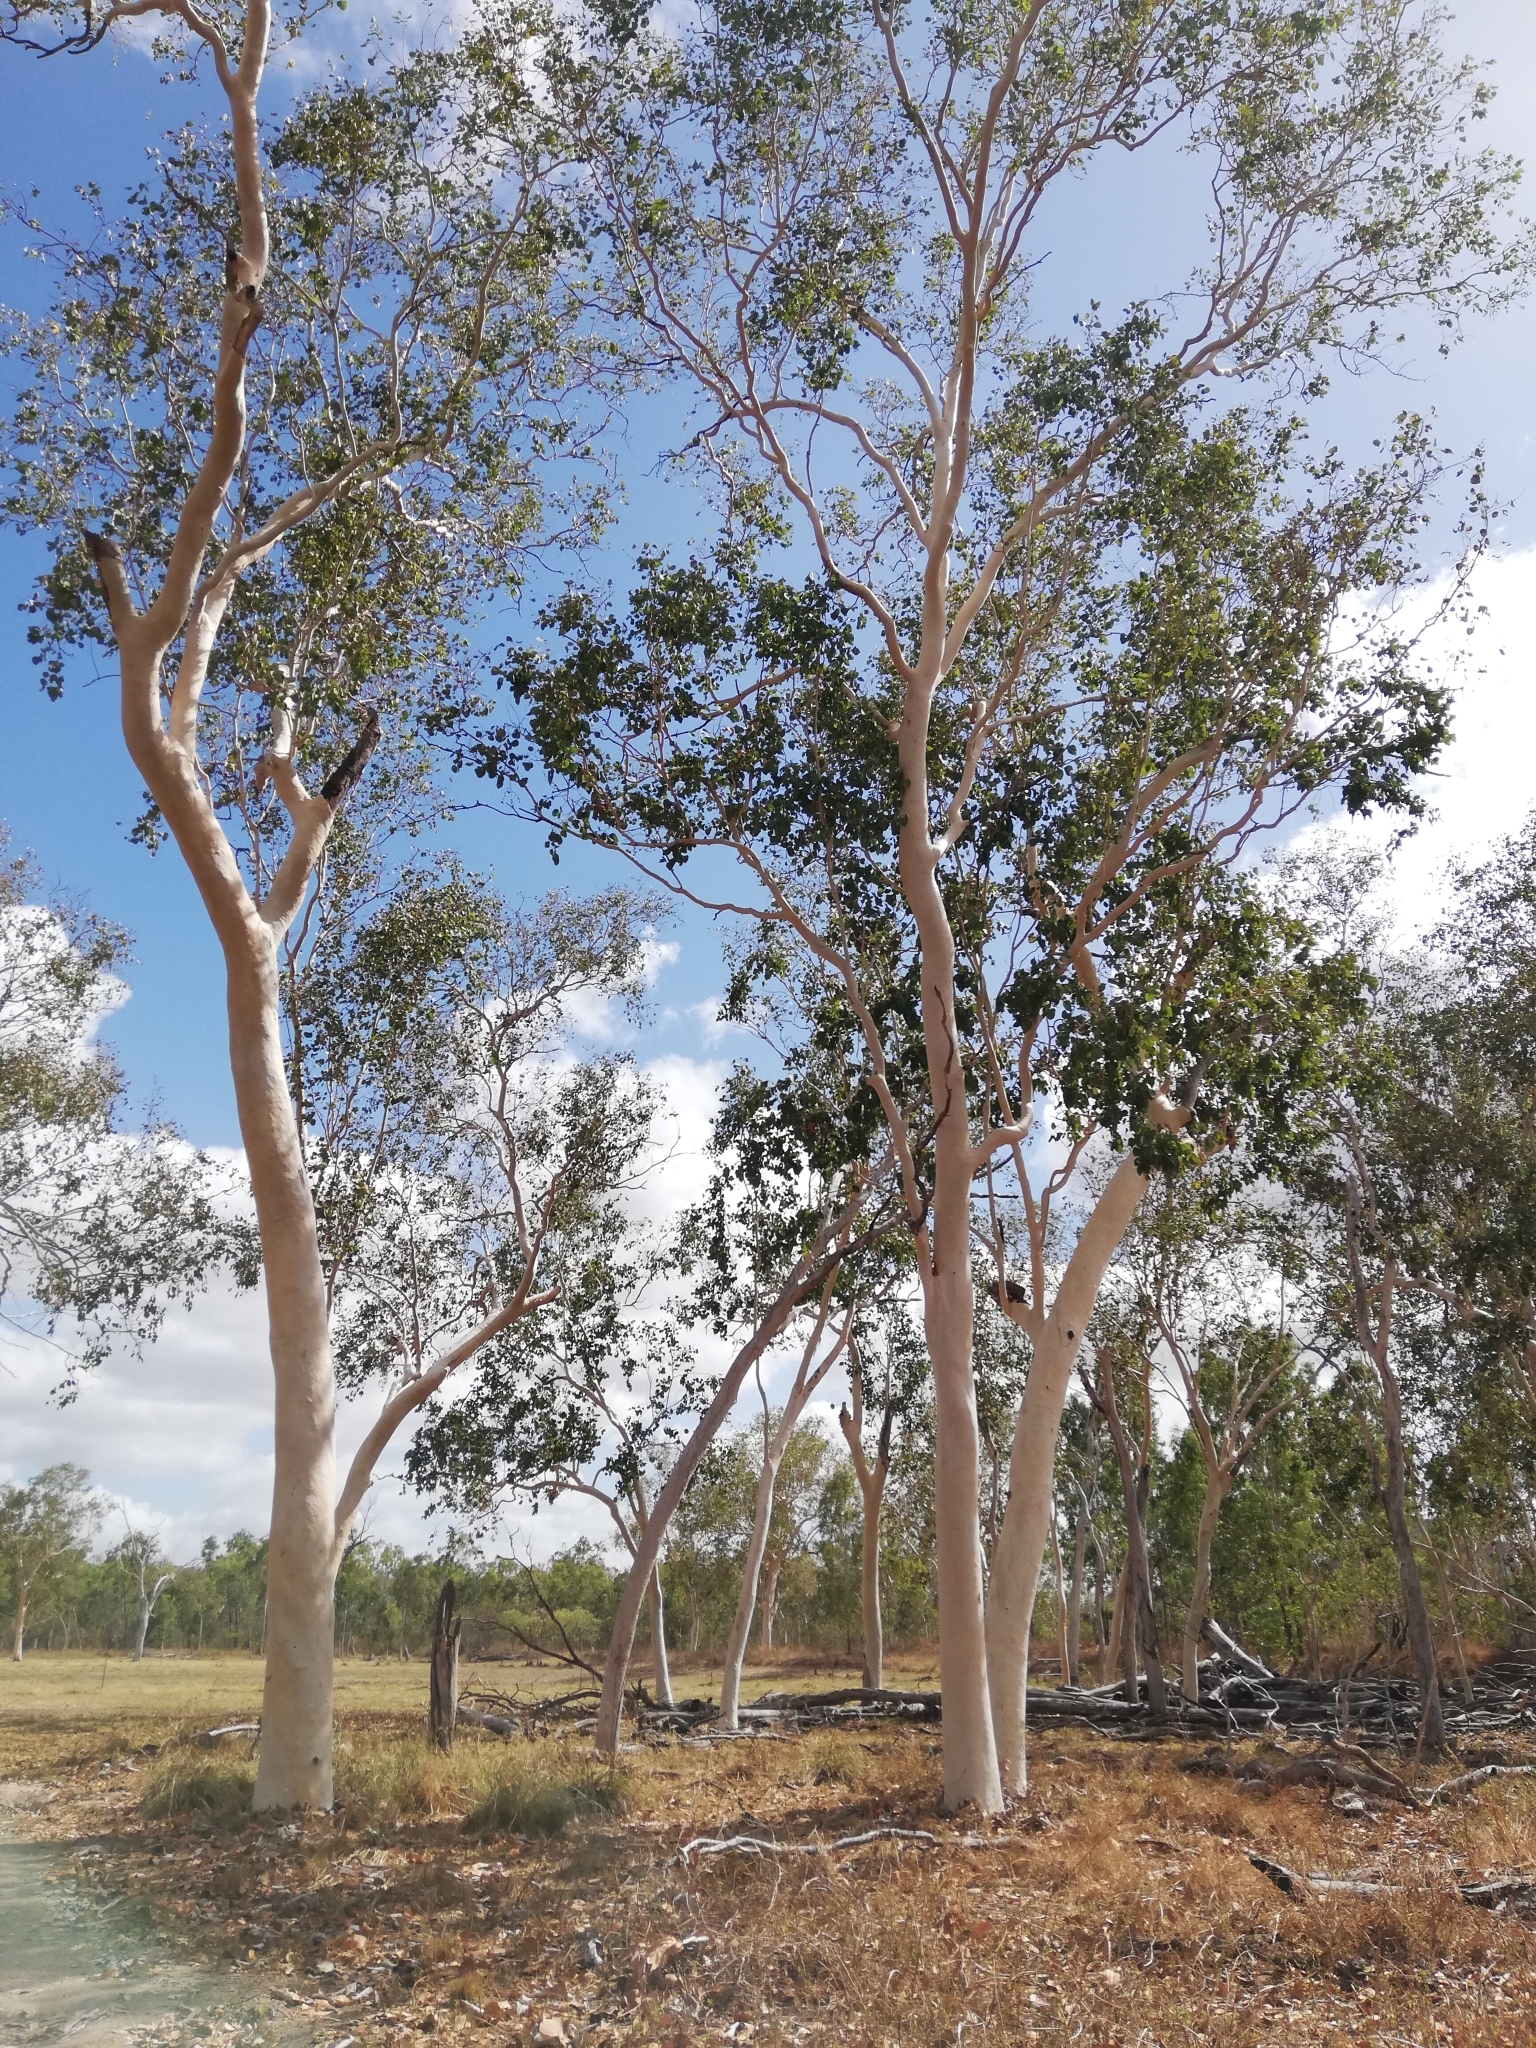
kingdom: Plantae
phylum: Tracheophyta
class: Magnoliopsida
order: Myrtales
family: Myrtaceae
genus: Eucalyptus
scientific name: Eucalyptus platyphylla
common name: Poplar-gum
